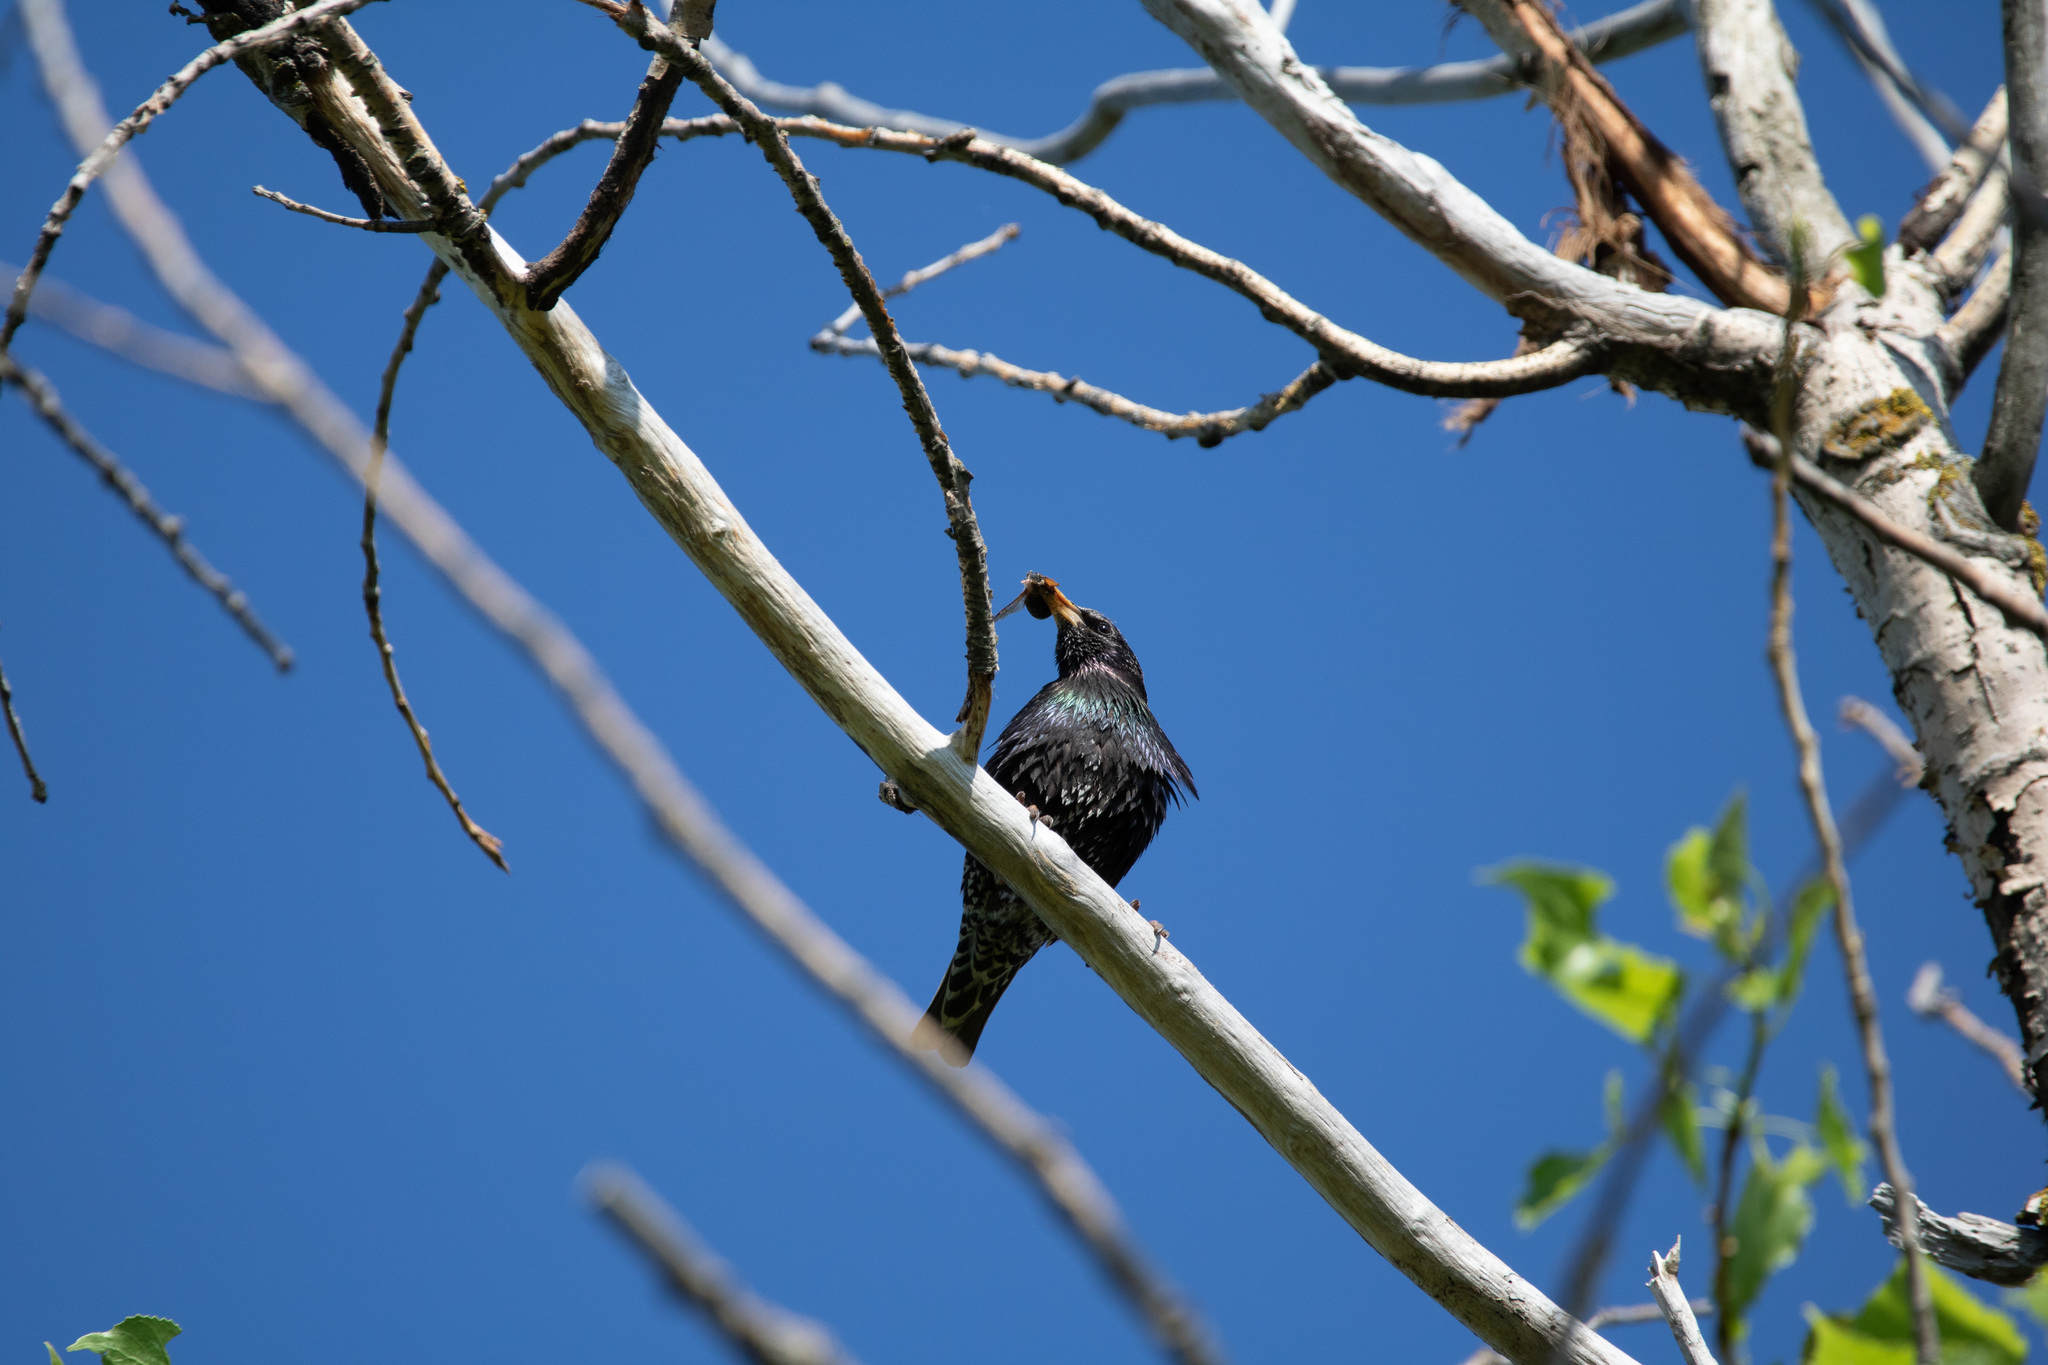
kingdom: Animalia
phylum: Chordata
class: Aves
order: Passeriformes
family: Sturnidae
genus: Sturnus
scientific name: Sturnus vulgaris
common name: Common starling
